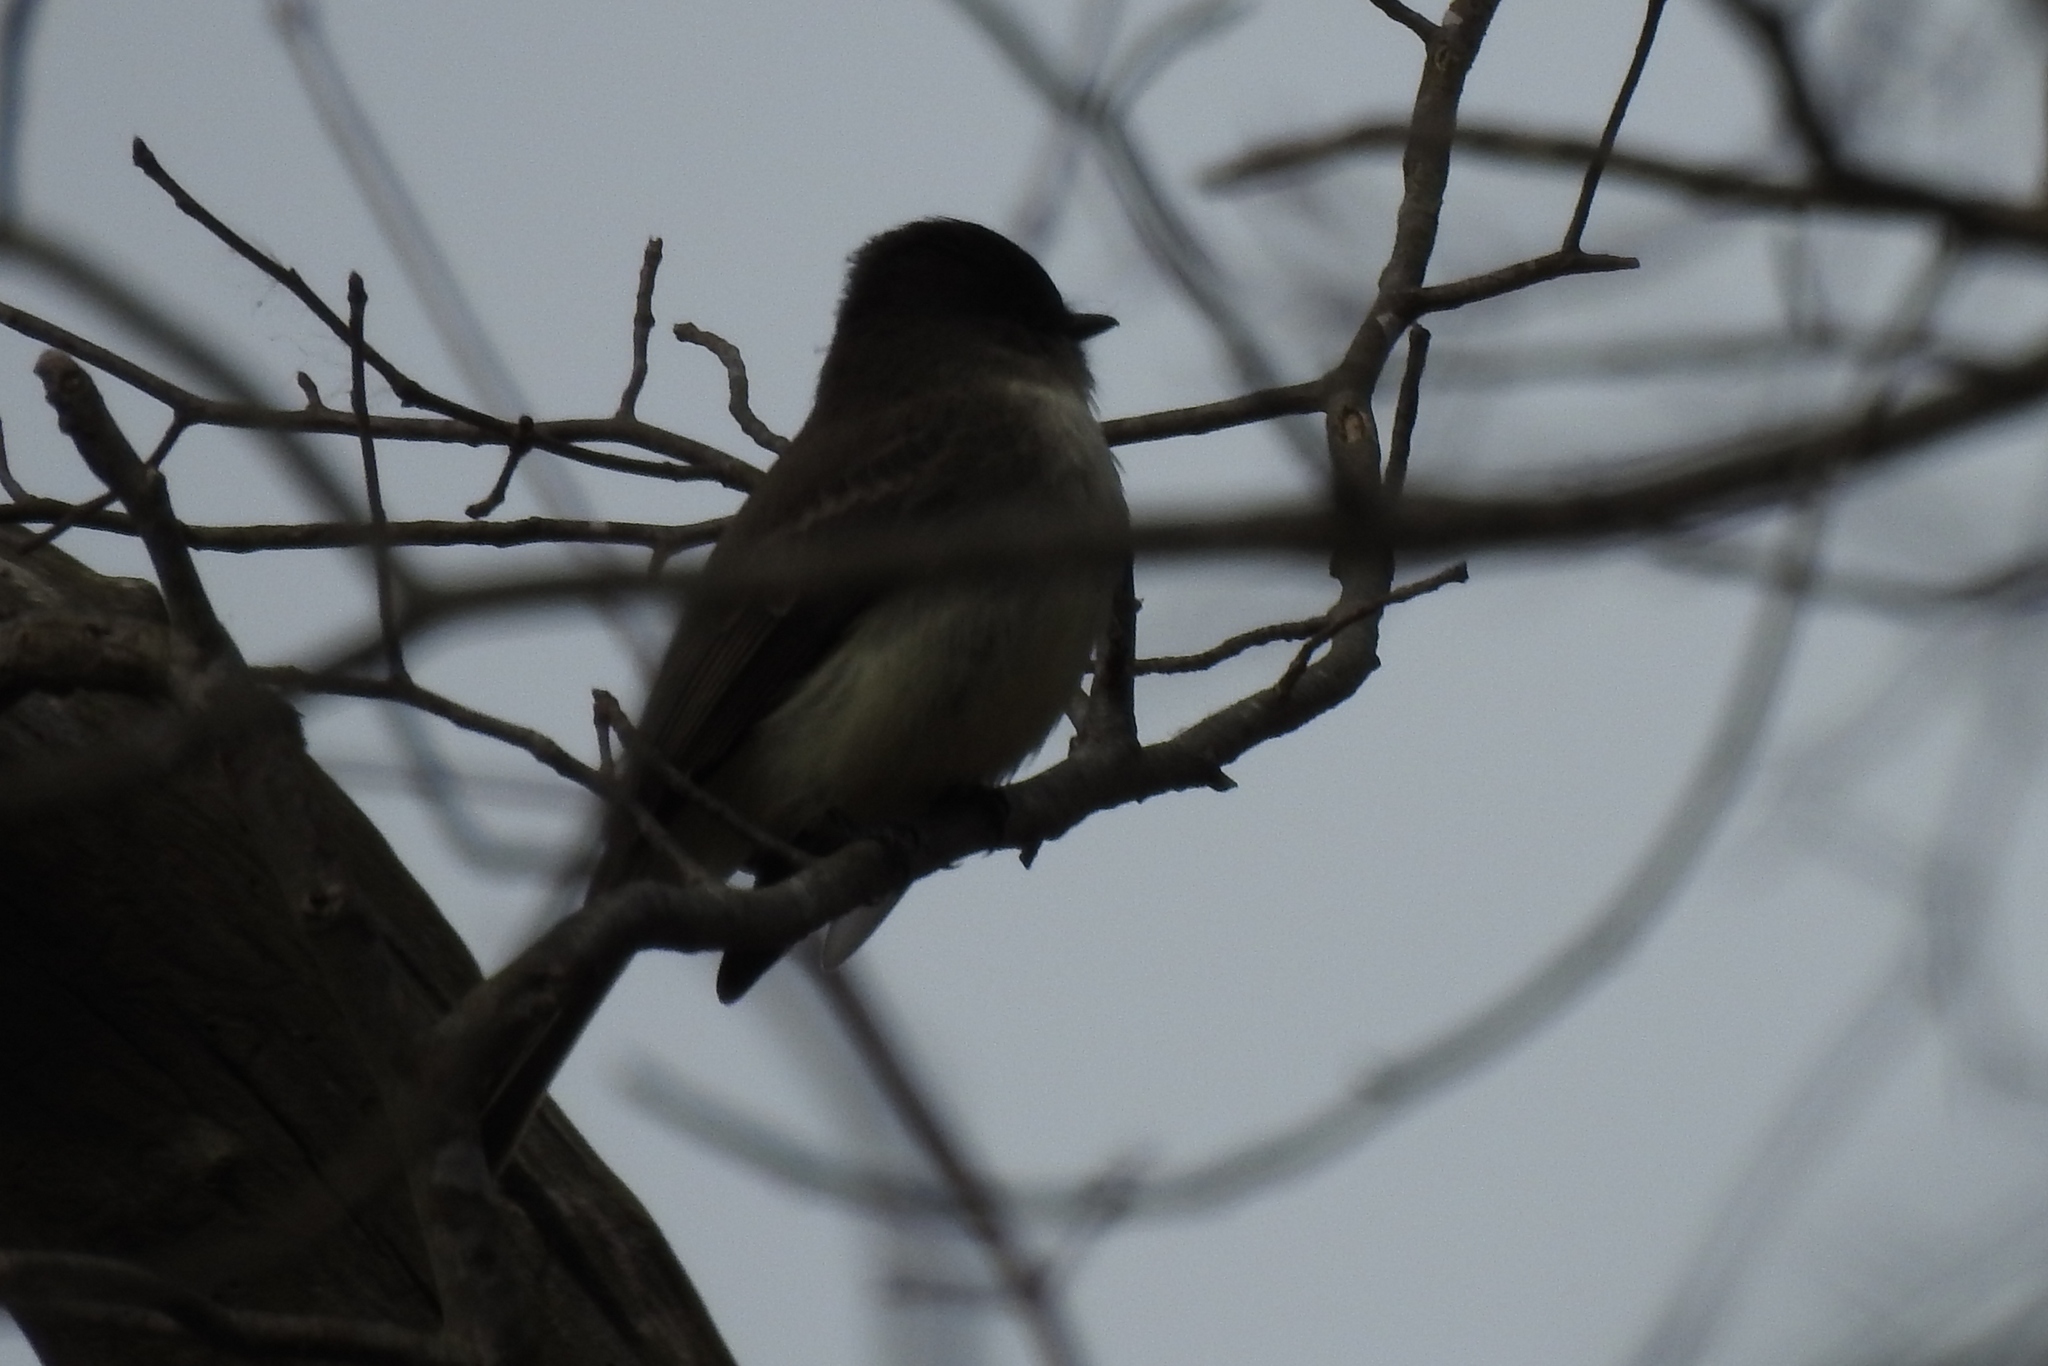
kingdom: Animalia
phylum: Chordata
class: Aves
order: Passeriformes
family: Tyrannidae
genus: Sayornis
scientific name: Sayornis phoebe
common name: Eastern phoebe
